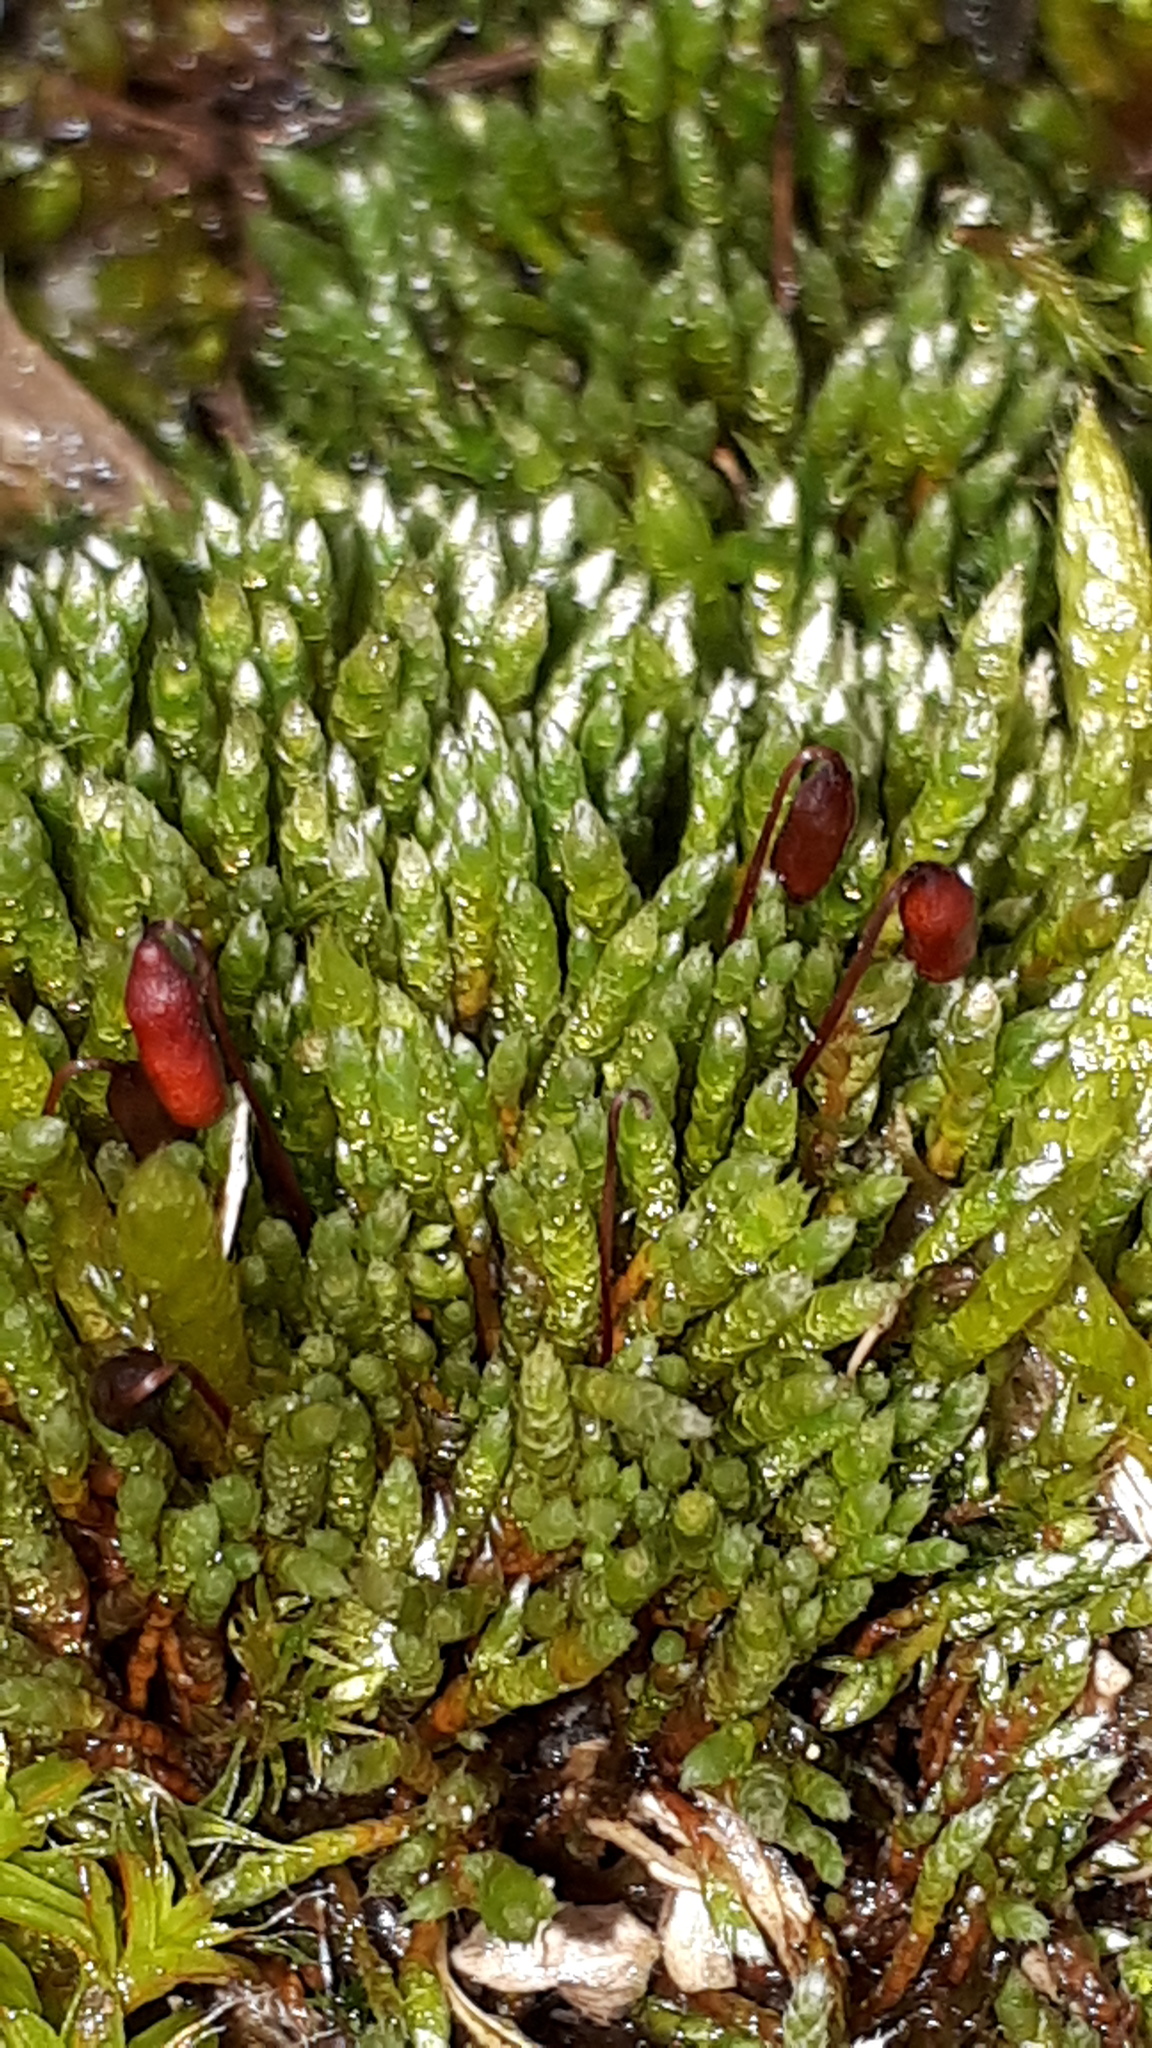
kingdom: Plantae
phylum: Bryophyta
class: Bryopsida
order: Bryales
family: Bryaceae
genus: Bryum
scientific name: Bryum argenteum
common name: Silver-moss
